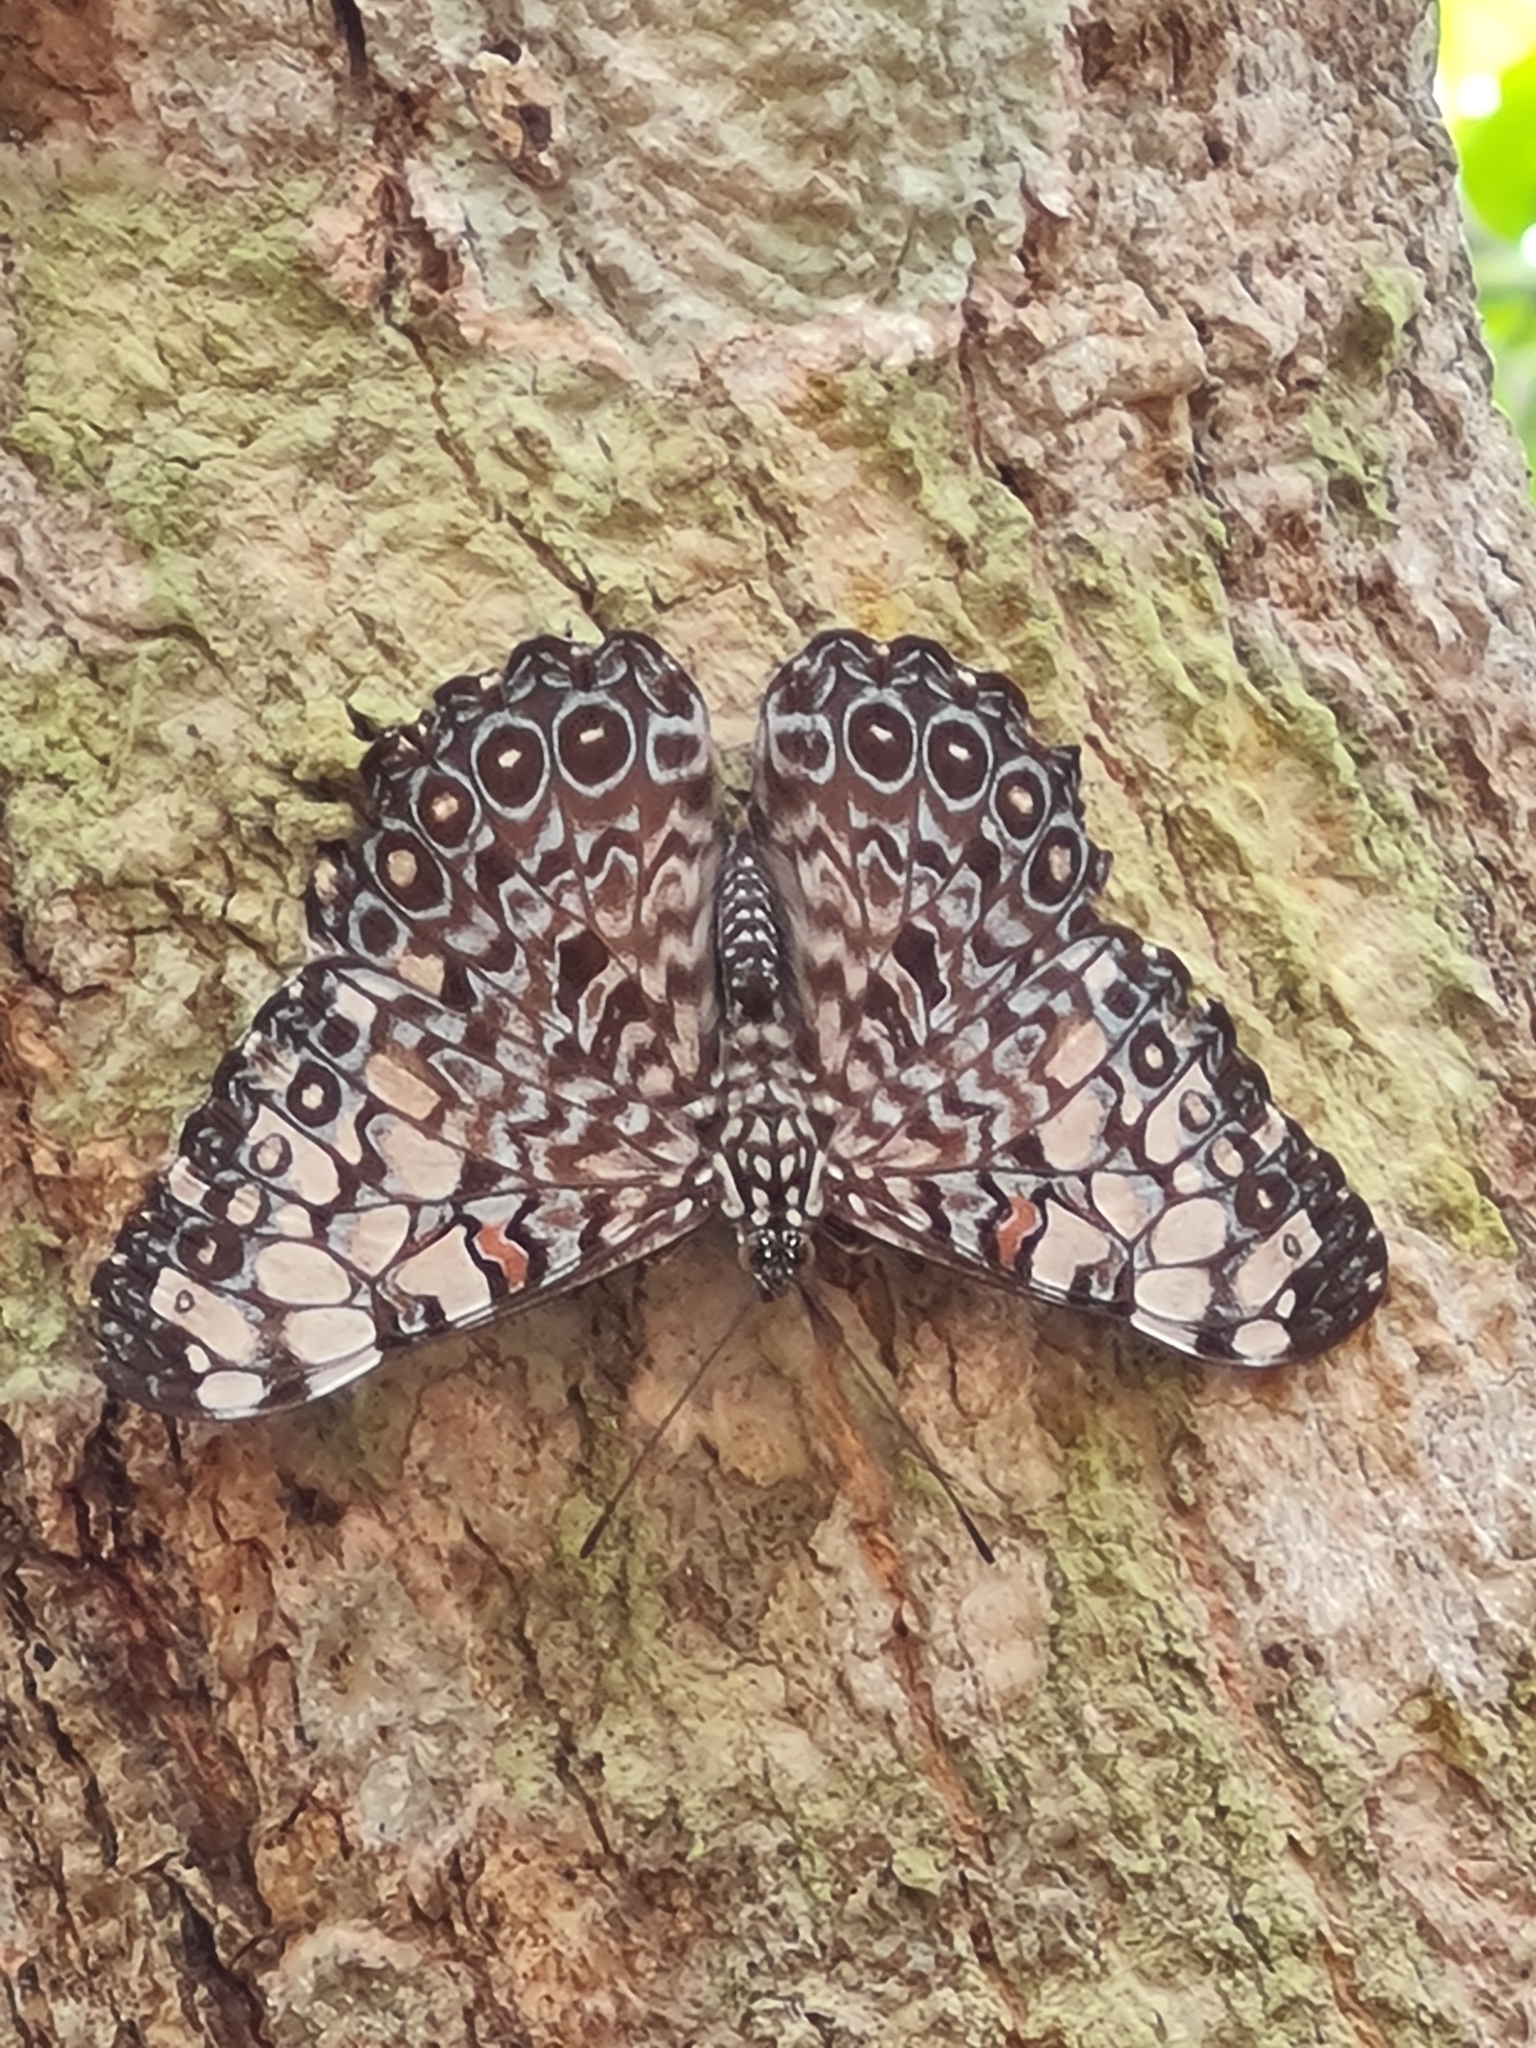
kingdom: Animalia
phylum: Arthropoda
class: Insecta
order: Lepidoptera
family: Nymphalidae
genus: Hamadryas
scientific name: Hamadryas feronia
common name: Variable cracker
